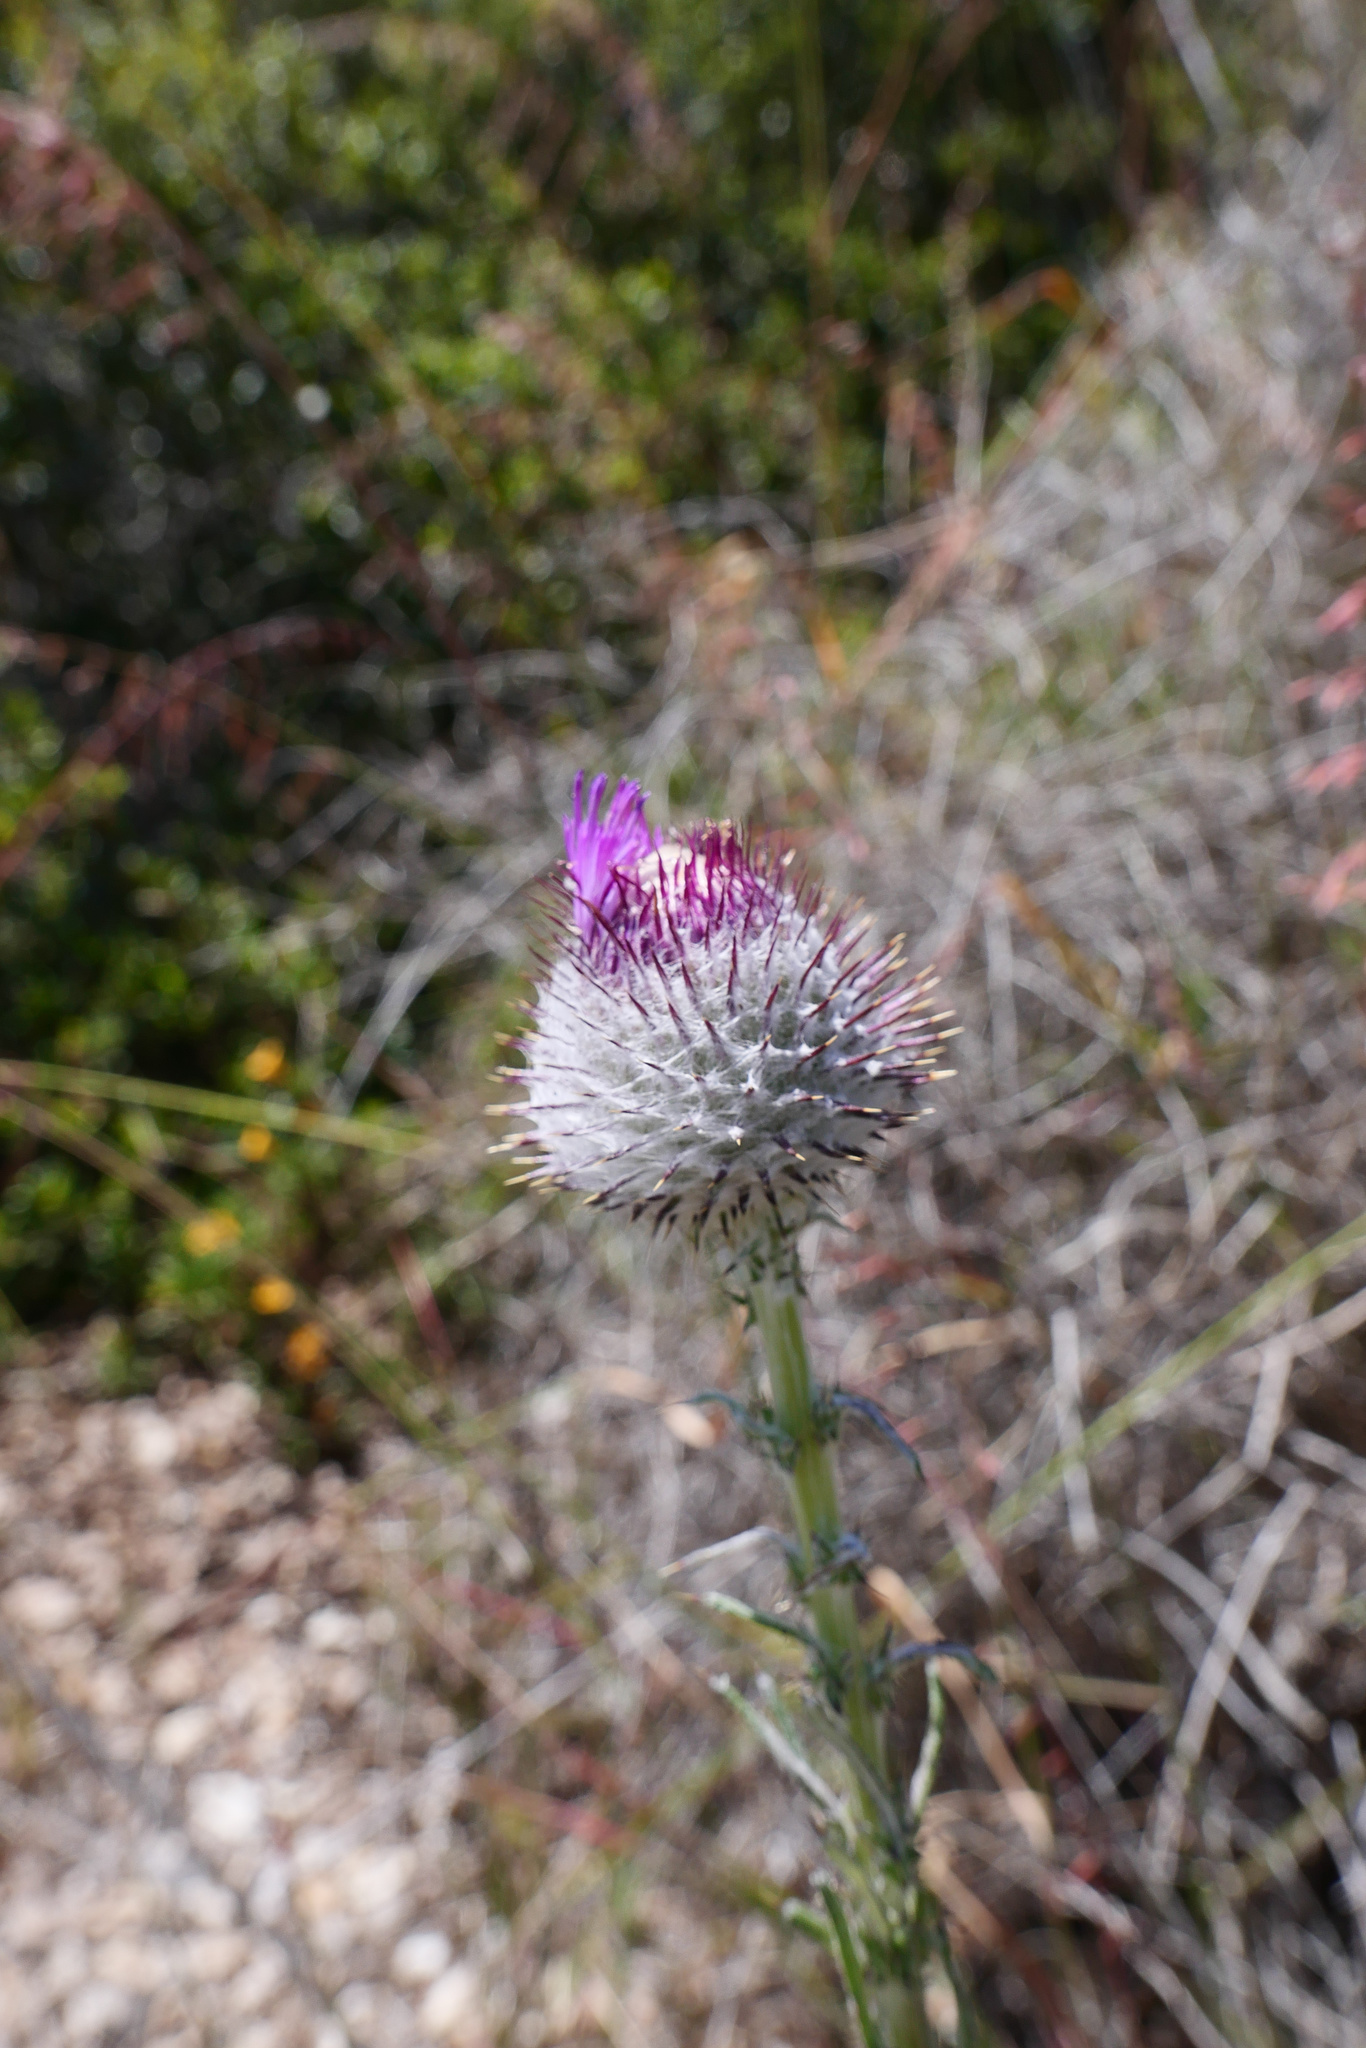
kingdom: Plantae
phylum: Tracheophyta
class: Magnoliopsida
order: Asterales
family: Asteraceae
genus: Cirsium
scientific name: Cirsium occidentale
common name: Western thistle
